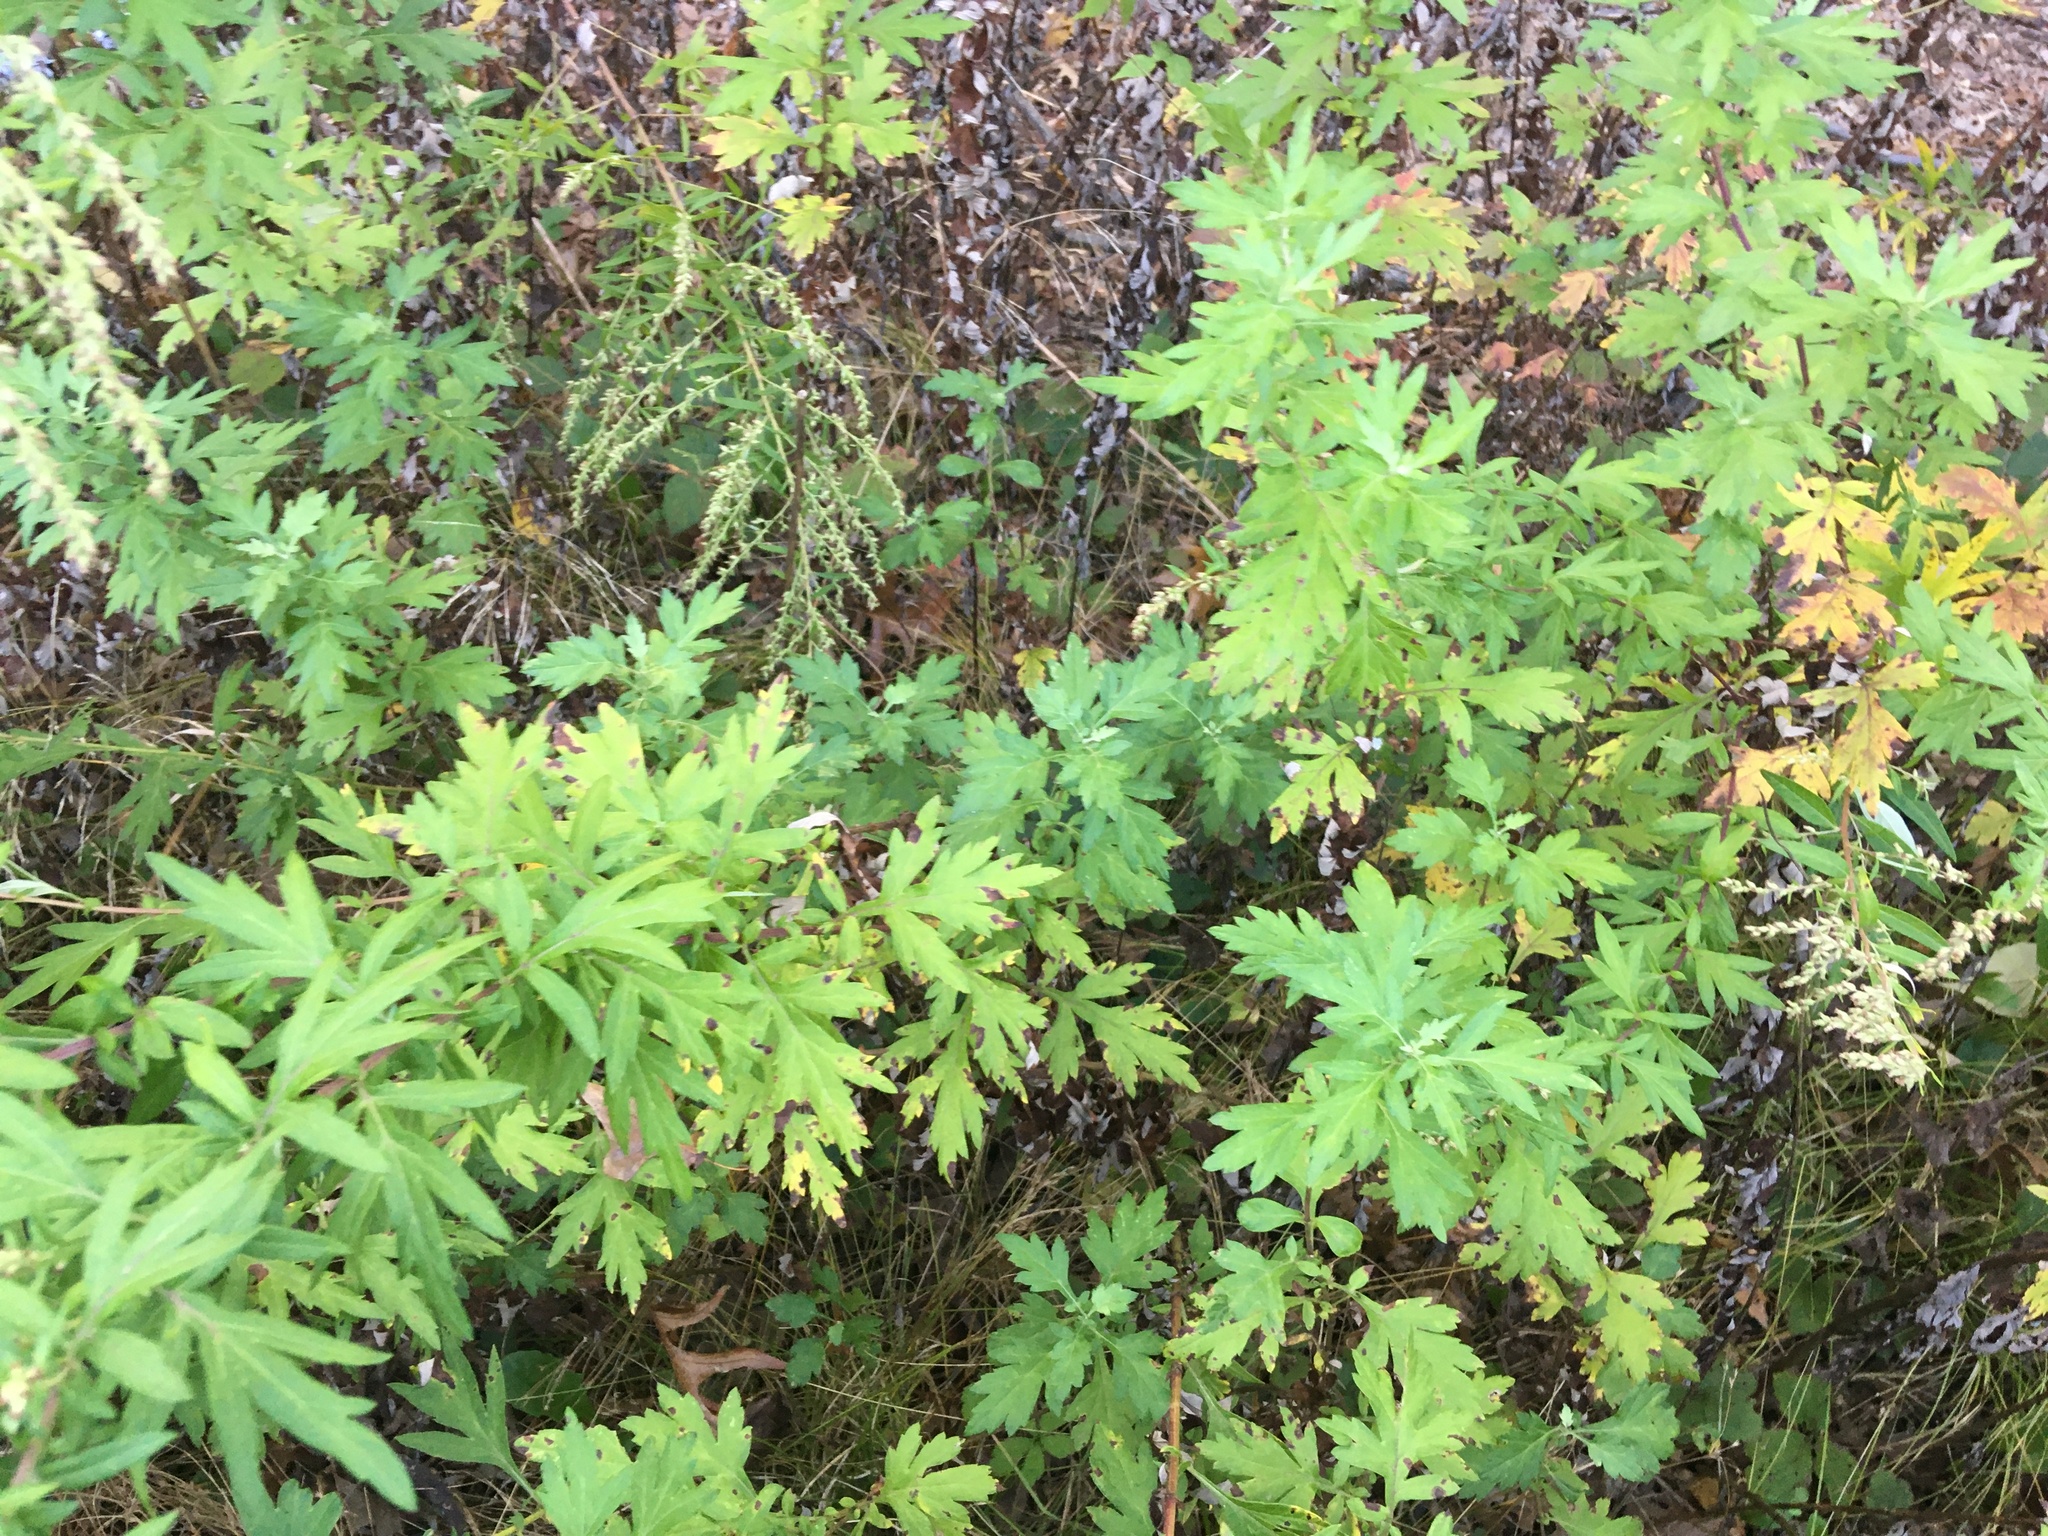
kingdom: Plantae
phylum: Tracheophyta
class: Magnoliopsida
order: Asterales
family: Asteraceae
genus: Artemisia
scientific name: Artemisia vulgaris
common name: Mugwort
